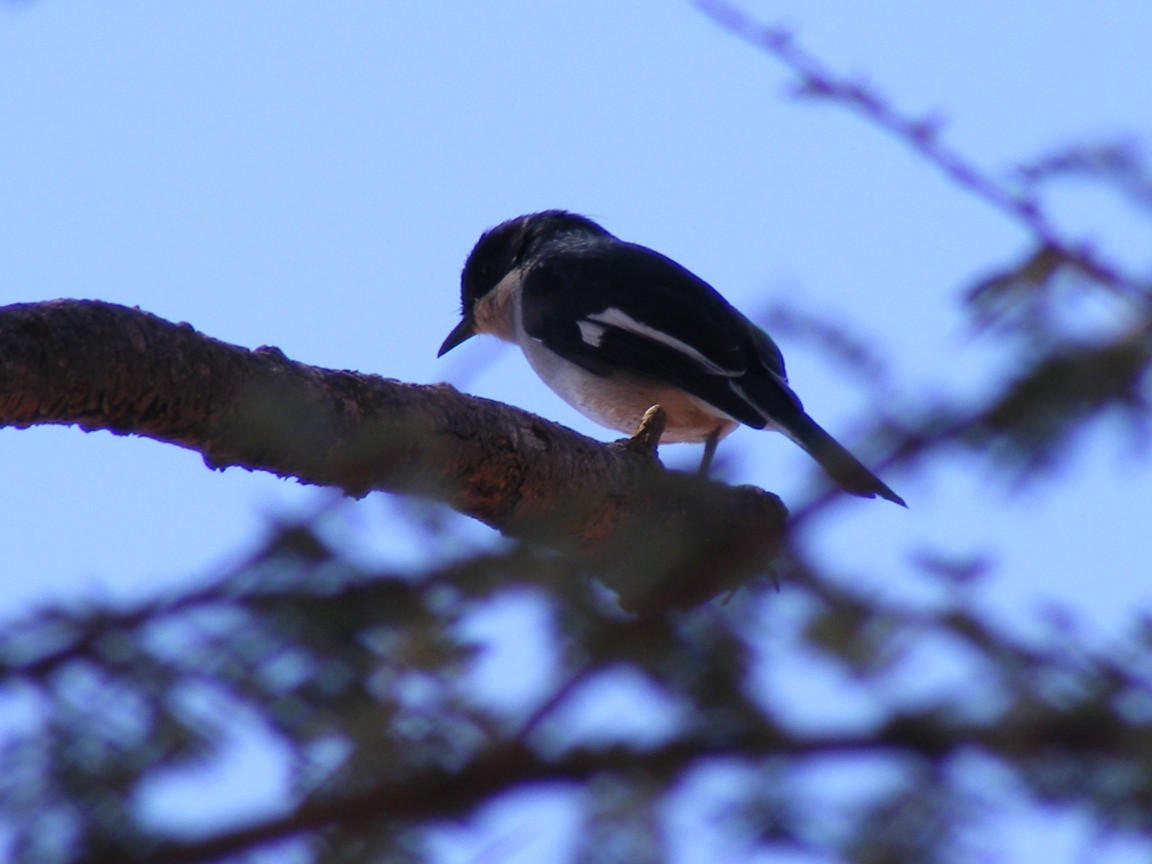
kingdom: Animalia
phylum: Chordata
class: Aves
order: Passeriformes
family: Muscicapidae
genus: Sigelus
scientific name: Sigelus silens
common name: Fiscal flycatcher
